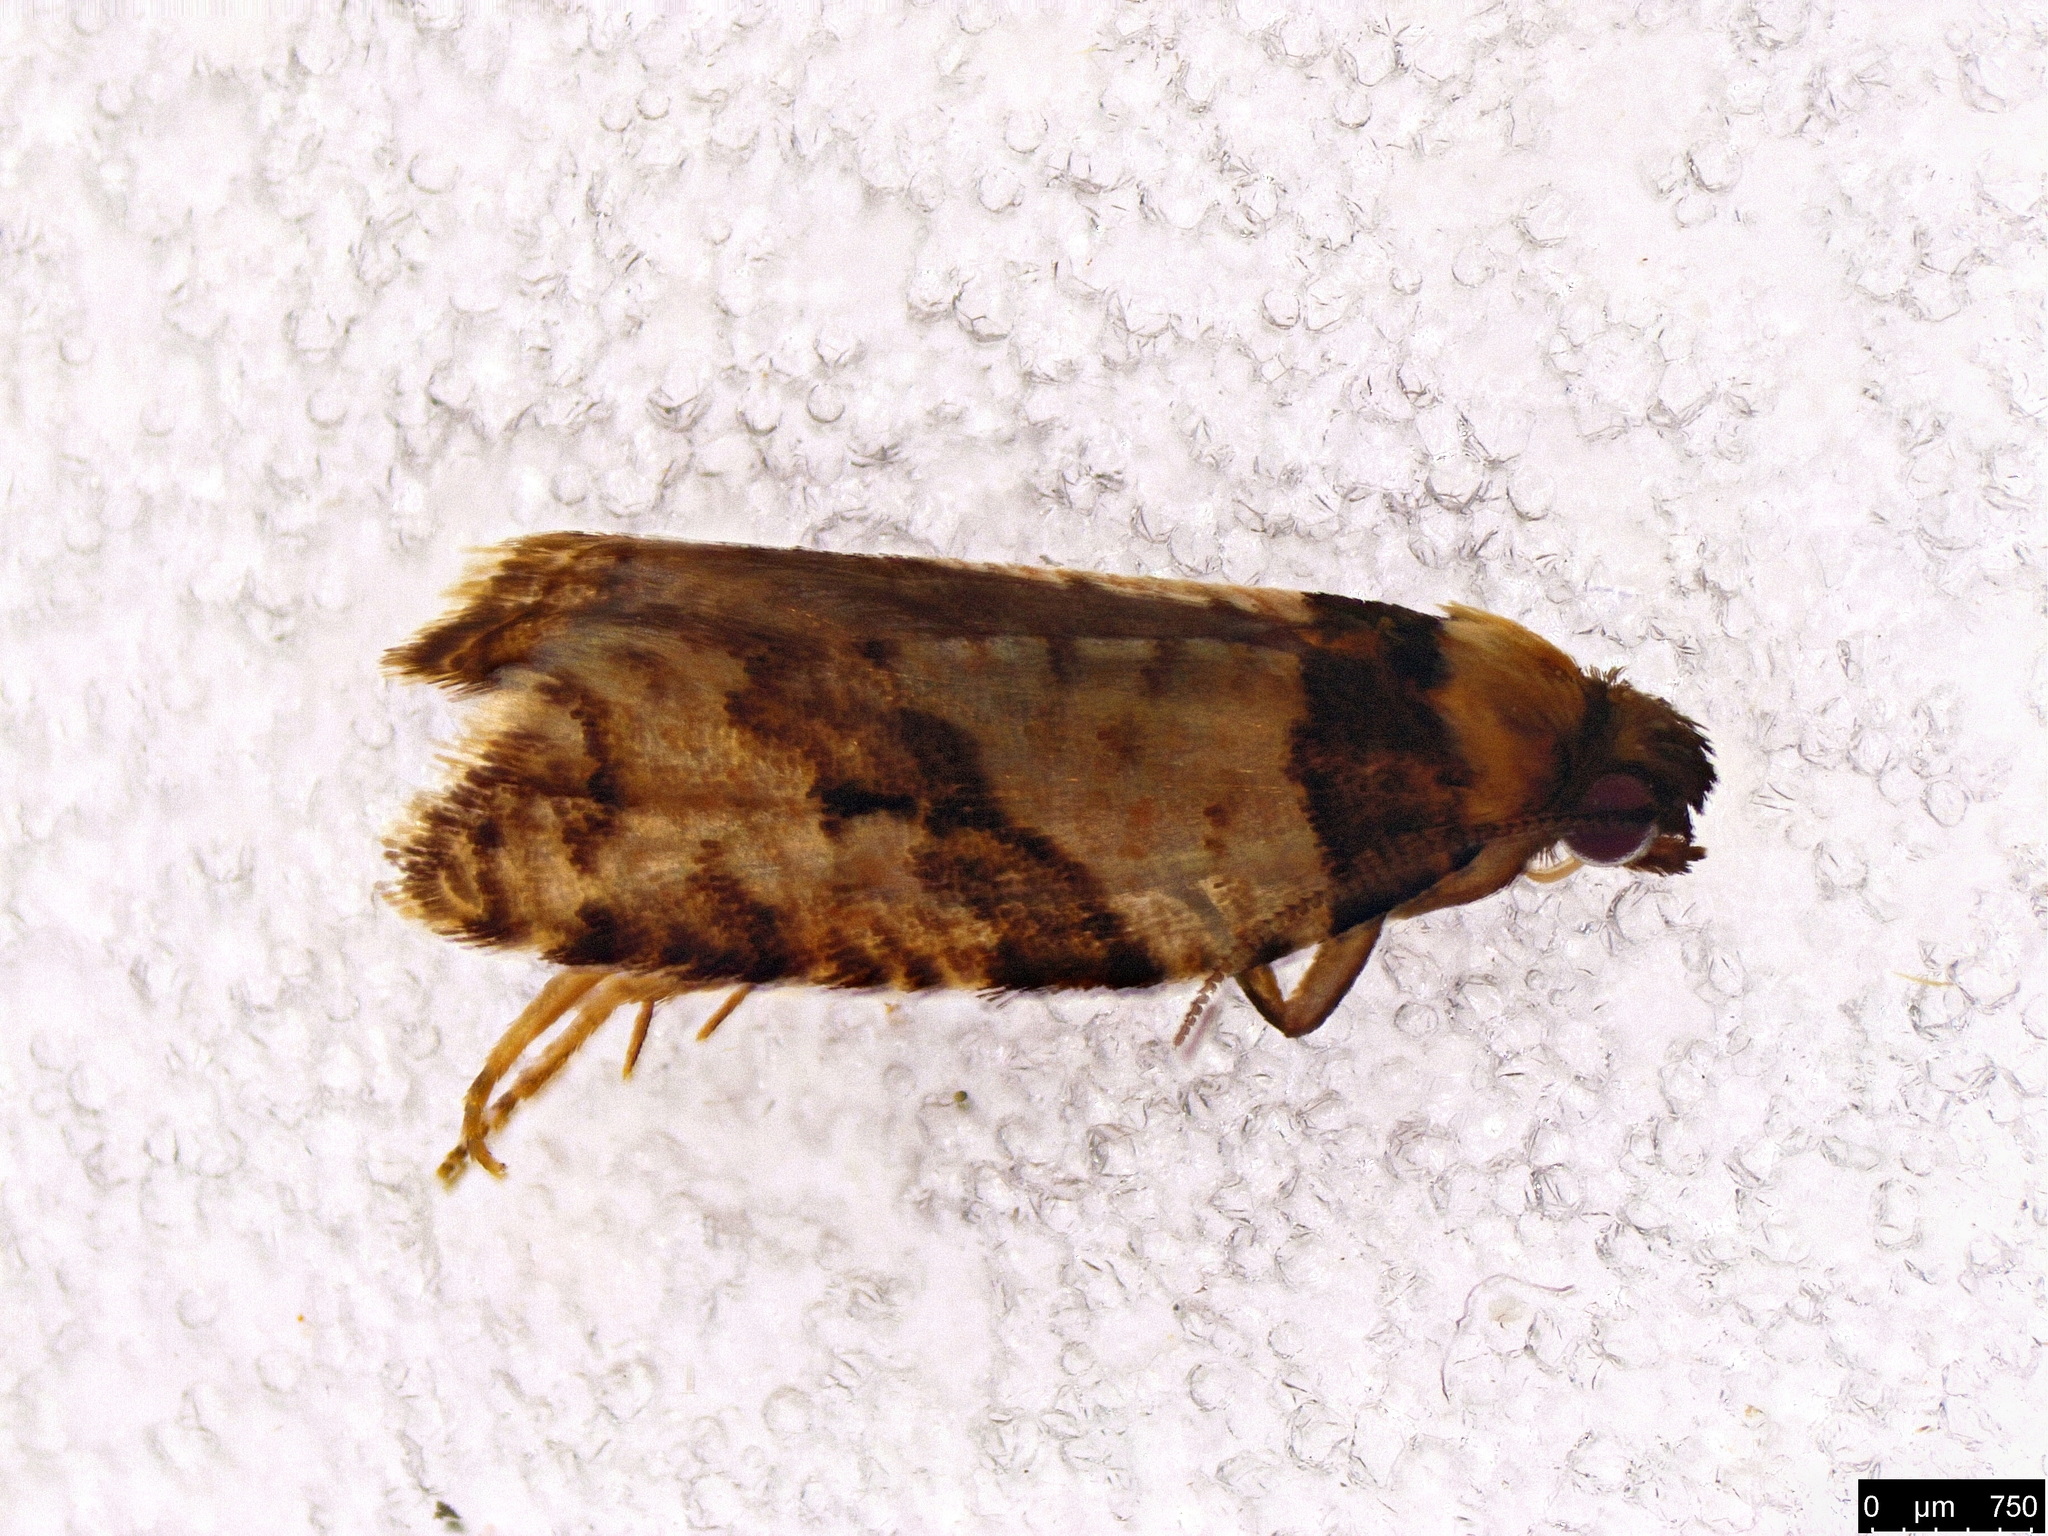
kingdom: Animalia
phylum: Arthropoda
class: Insecta
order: Lepidoptera
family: Tortricidae
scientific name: Tortricidae
